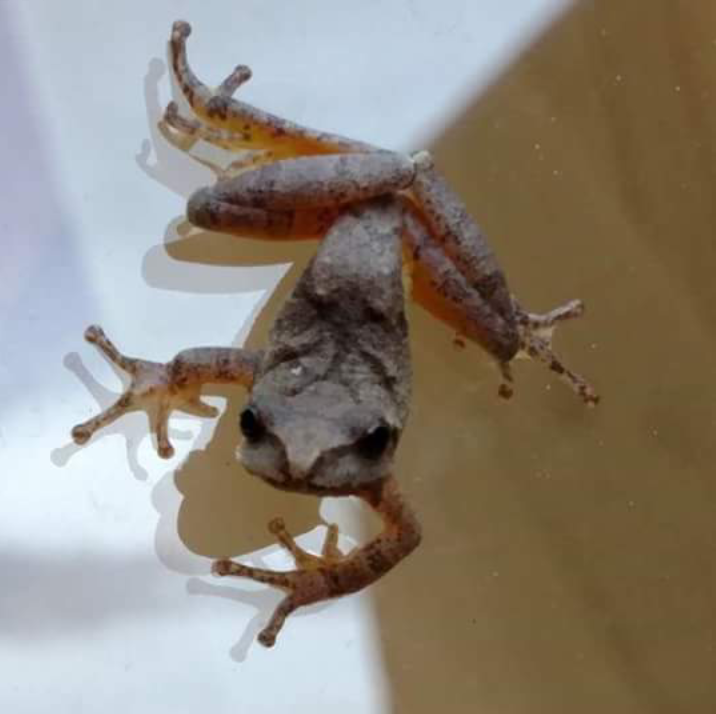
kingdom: Animalia
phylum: Chordata
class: Amphibia
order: Anura
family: Hylidae
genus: Pseudacris
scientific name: Pseudacris crucifer
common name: Spring peeper
